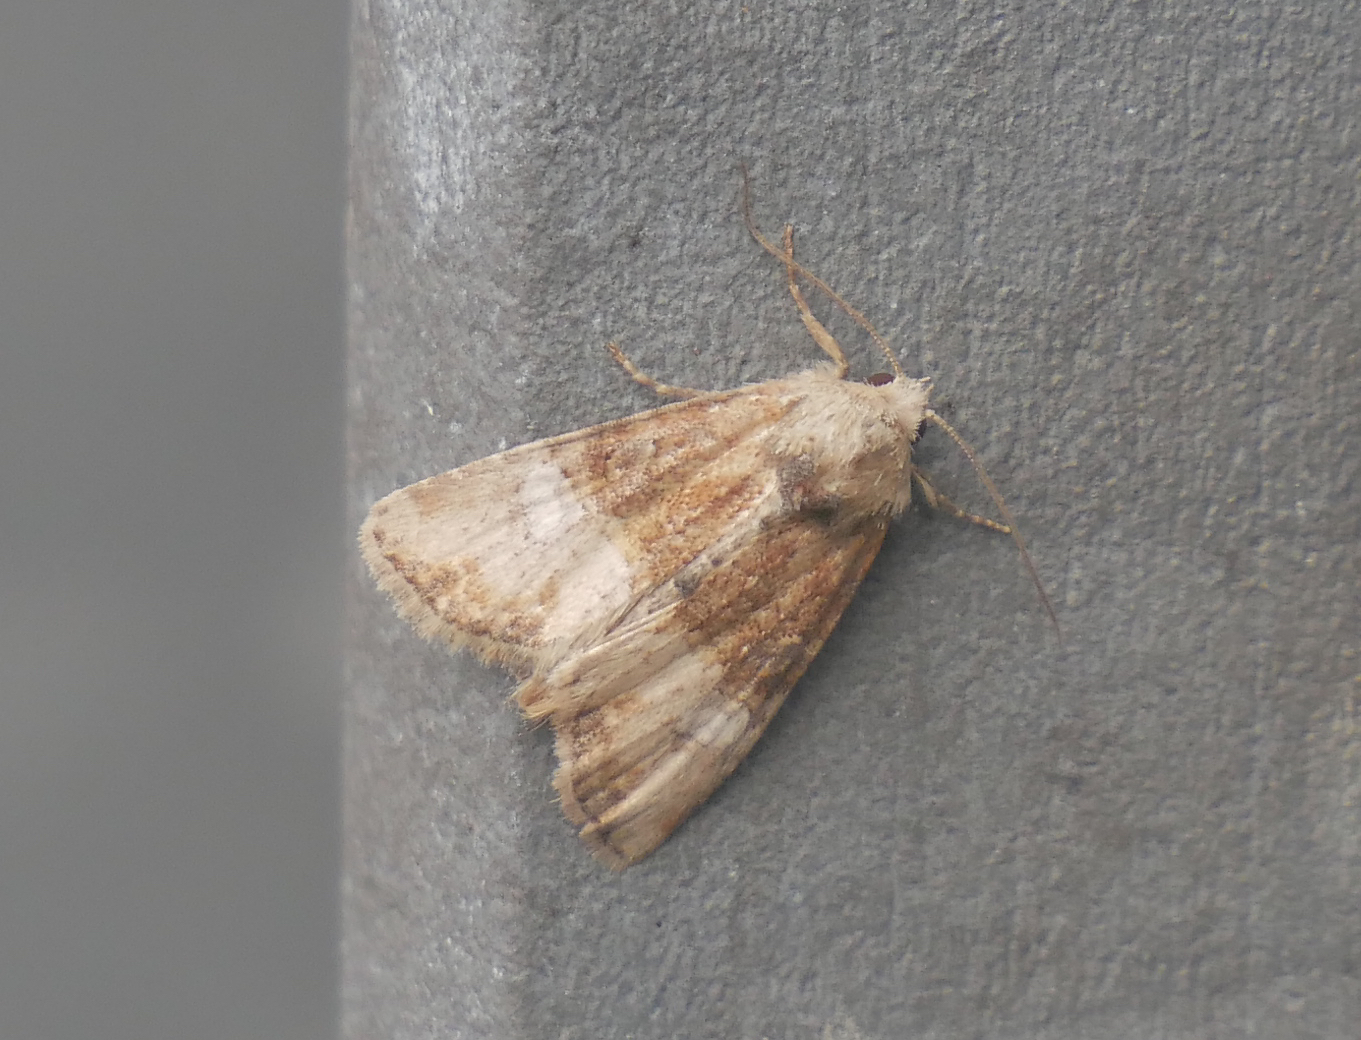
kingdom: Animalia
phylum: Arthropoda
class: Insecta
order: Lepidoptera
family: Noctuidae
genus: Mesoligia
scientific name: Mesoligia furuncula
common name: Cloaked minor
